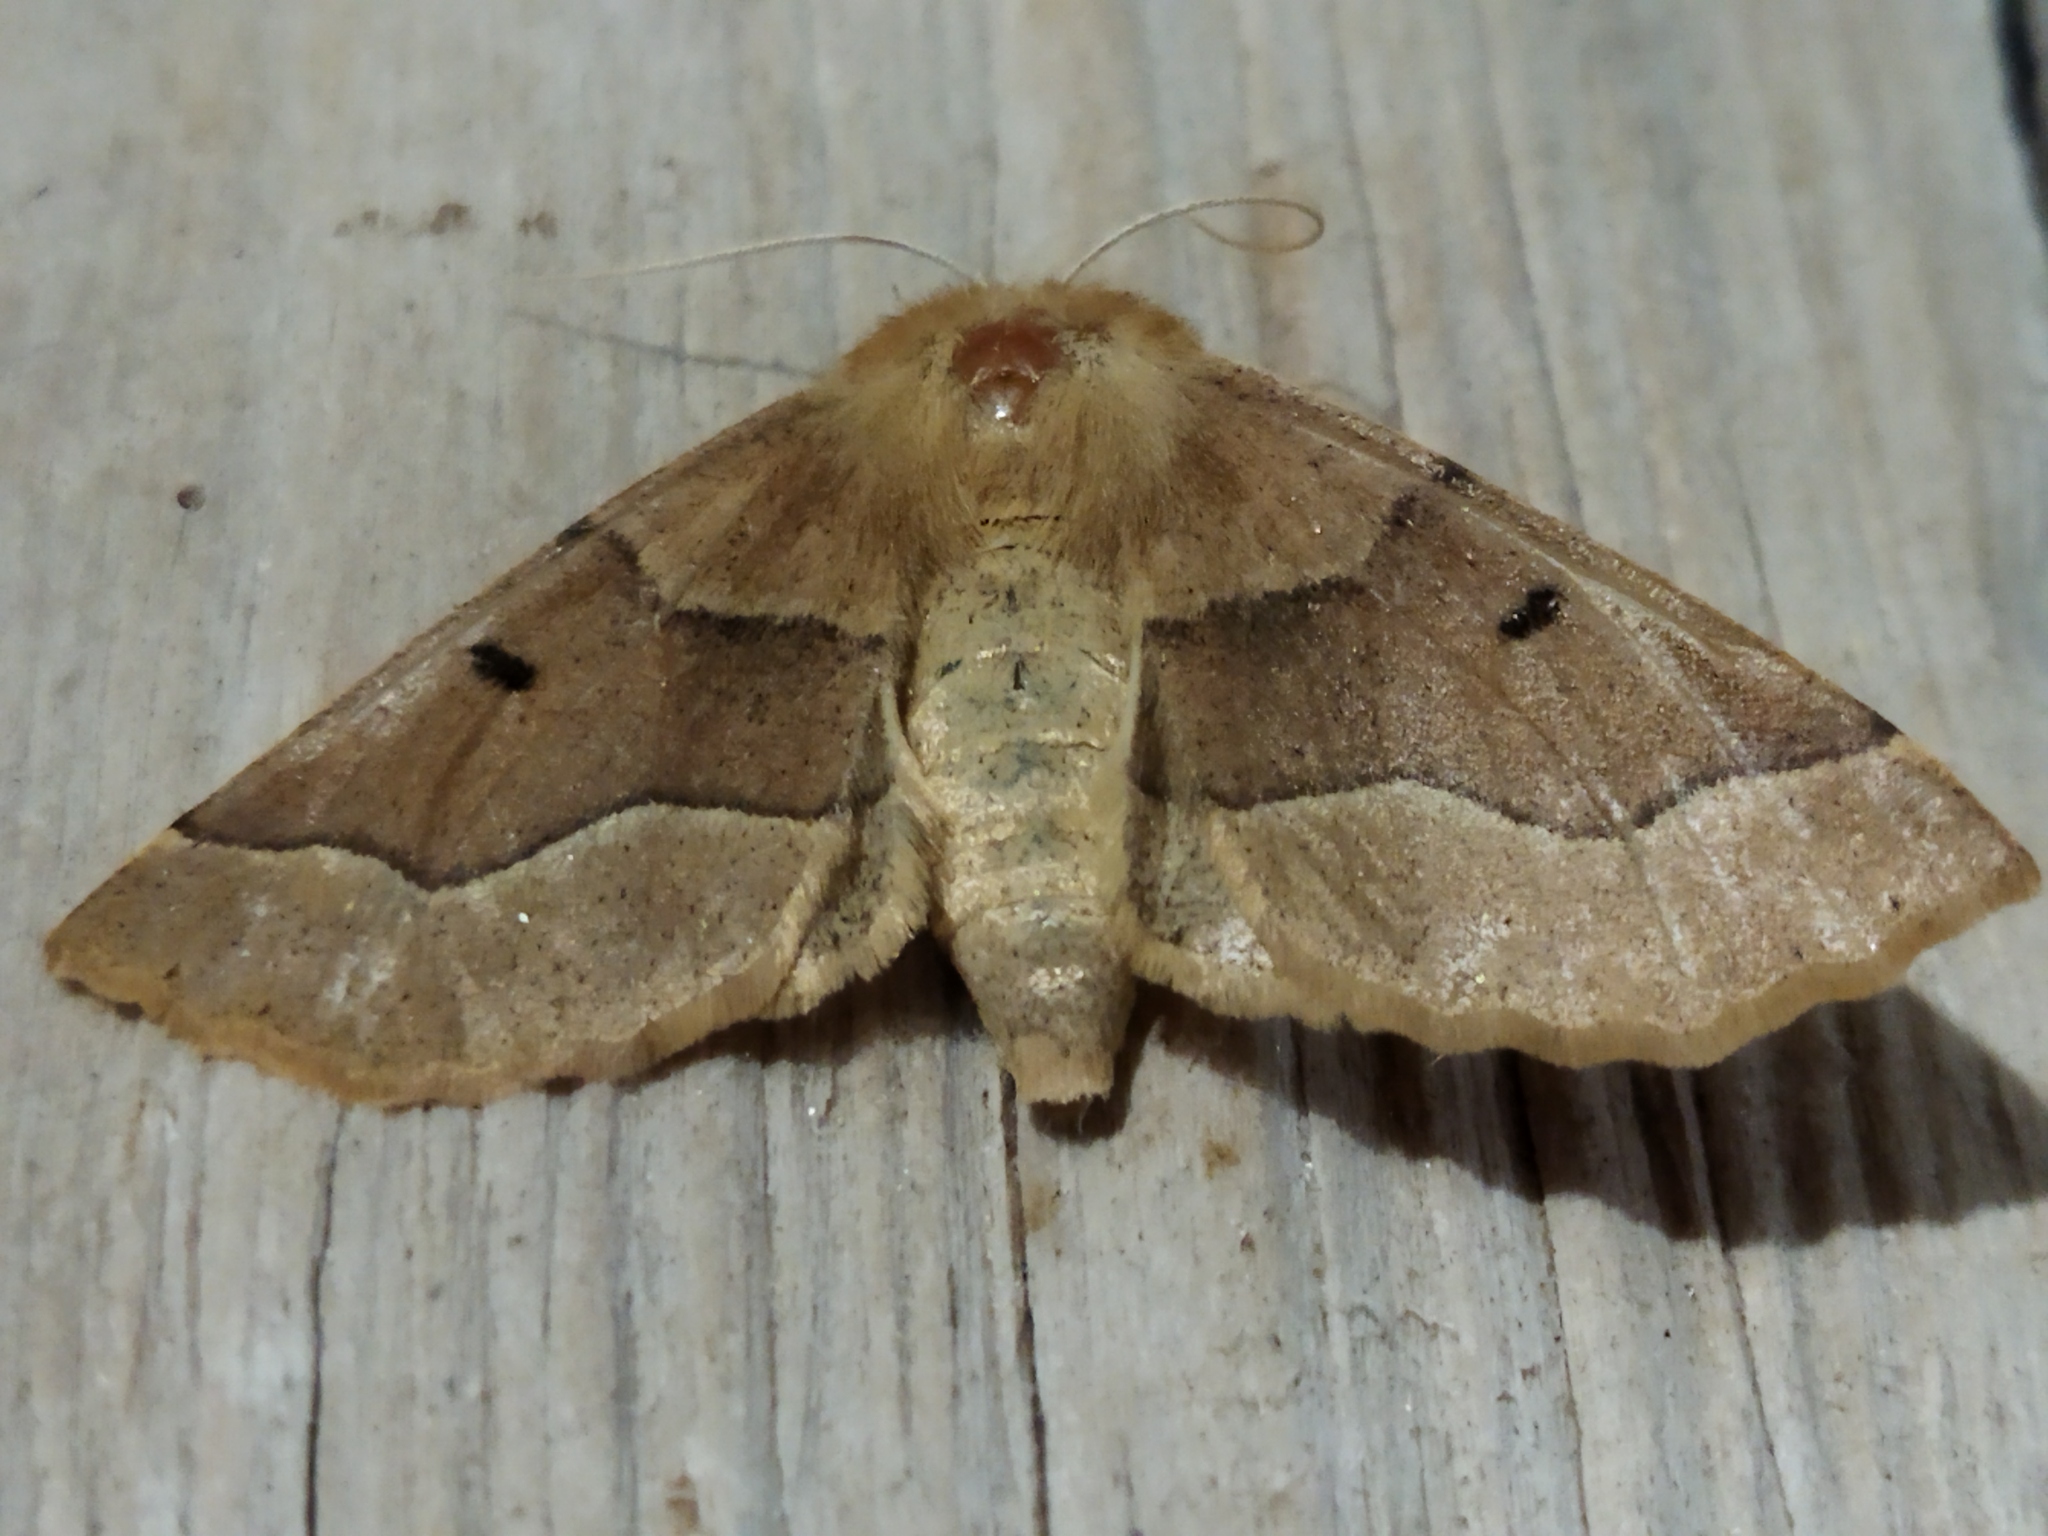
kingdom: Animalia
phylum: Arthropoda
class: Insecta
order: Lepidoptera
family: Geometridae
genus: Crocallis
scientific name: Crocallis tusciaria
